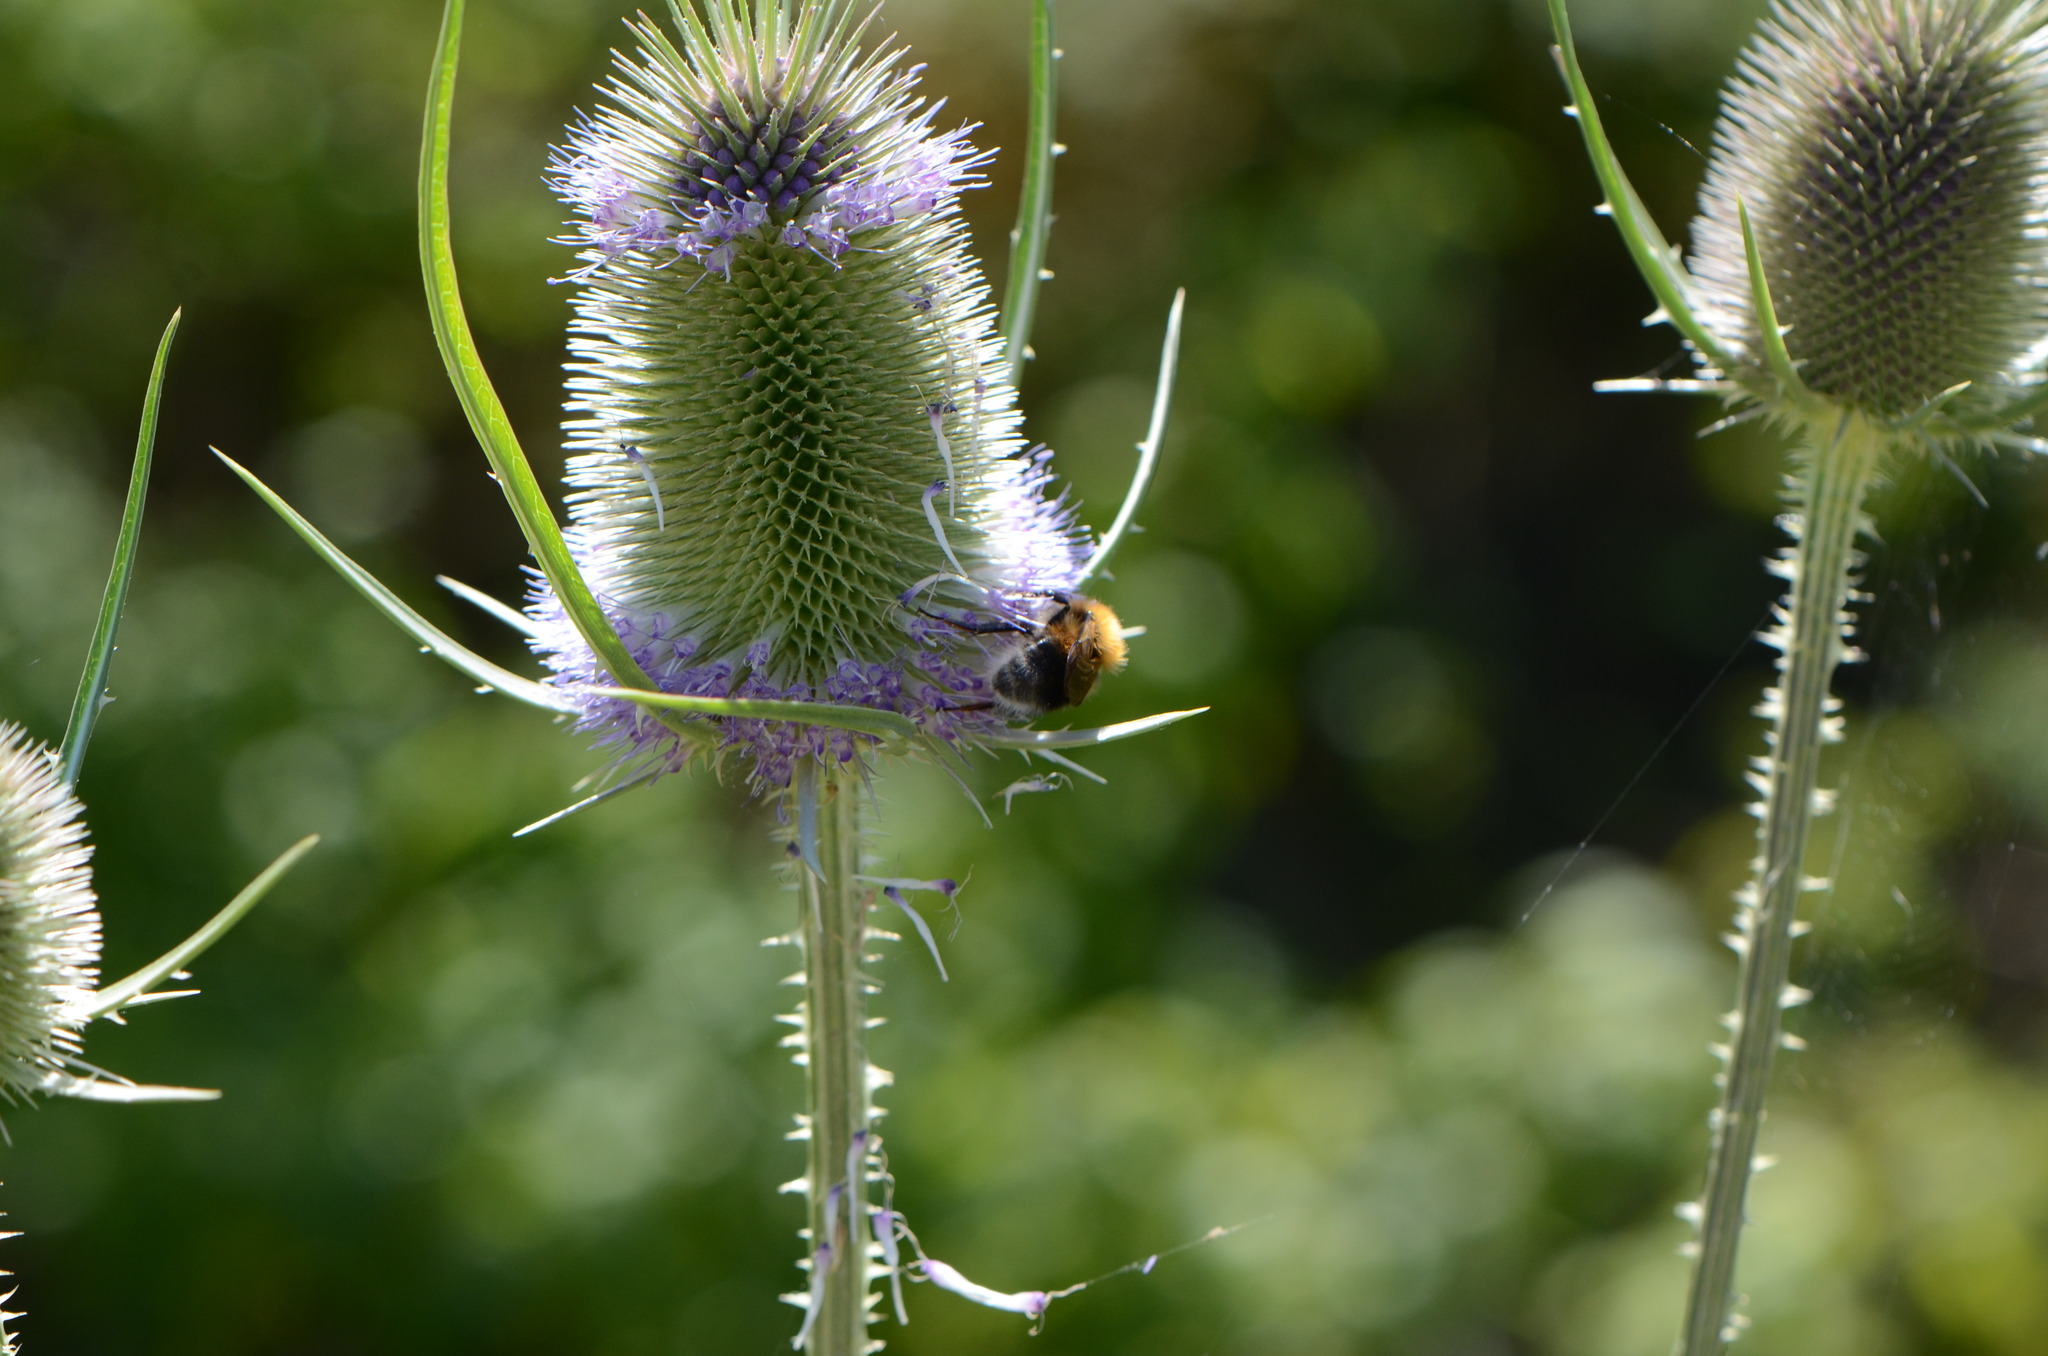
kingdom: Plantae
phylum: Tracheophyta
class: Magnoliopsida
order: Dipsacales
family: Caprifoliaceae
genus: Dipsacus
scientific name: Dipsacus fullonum
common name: Teasel
